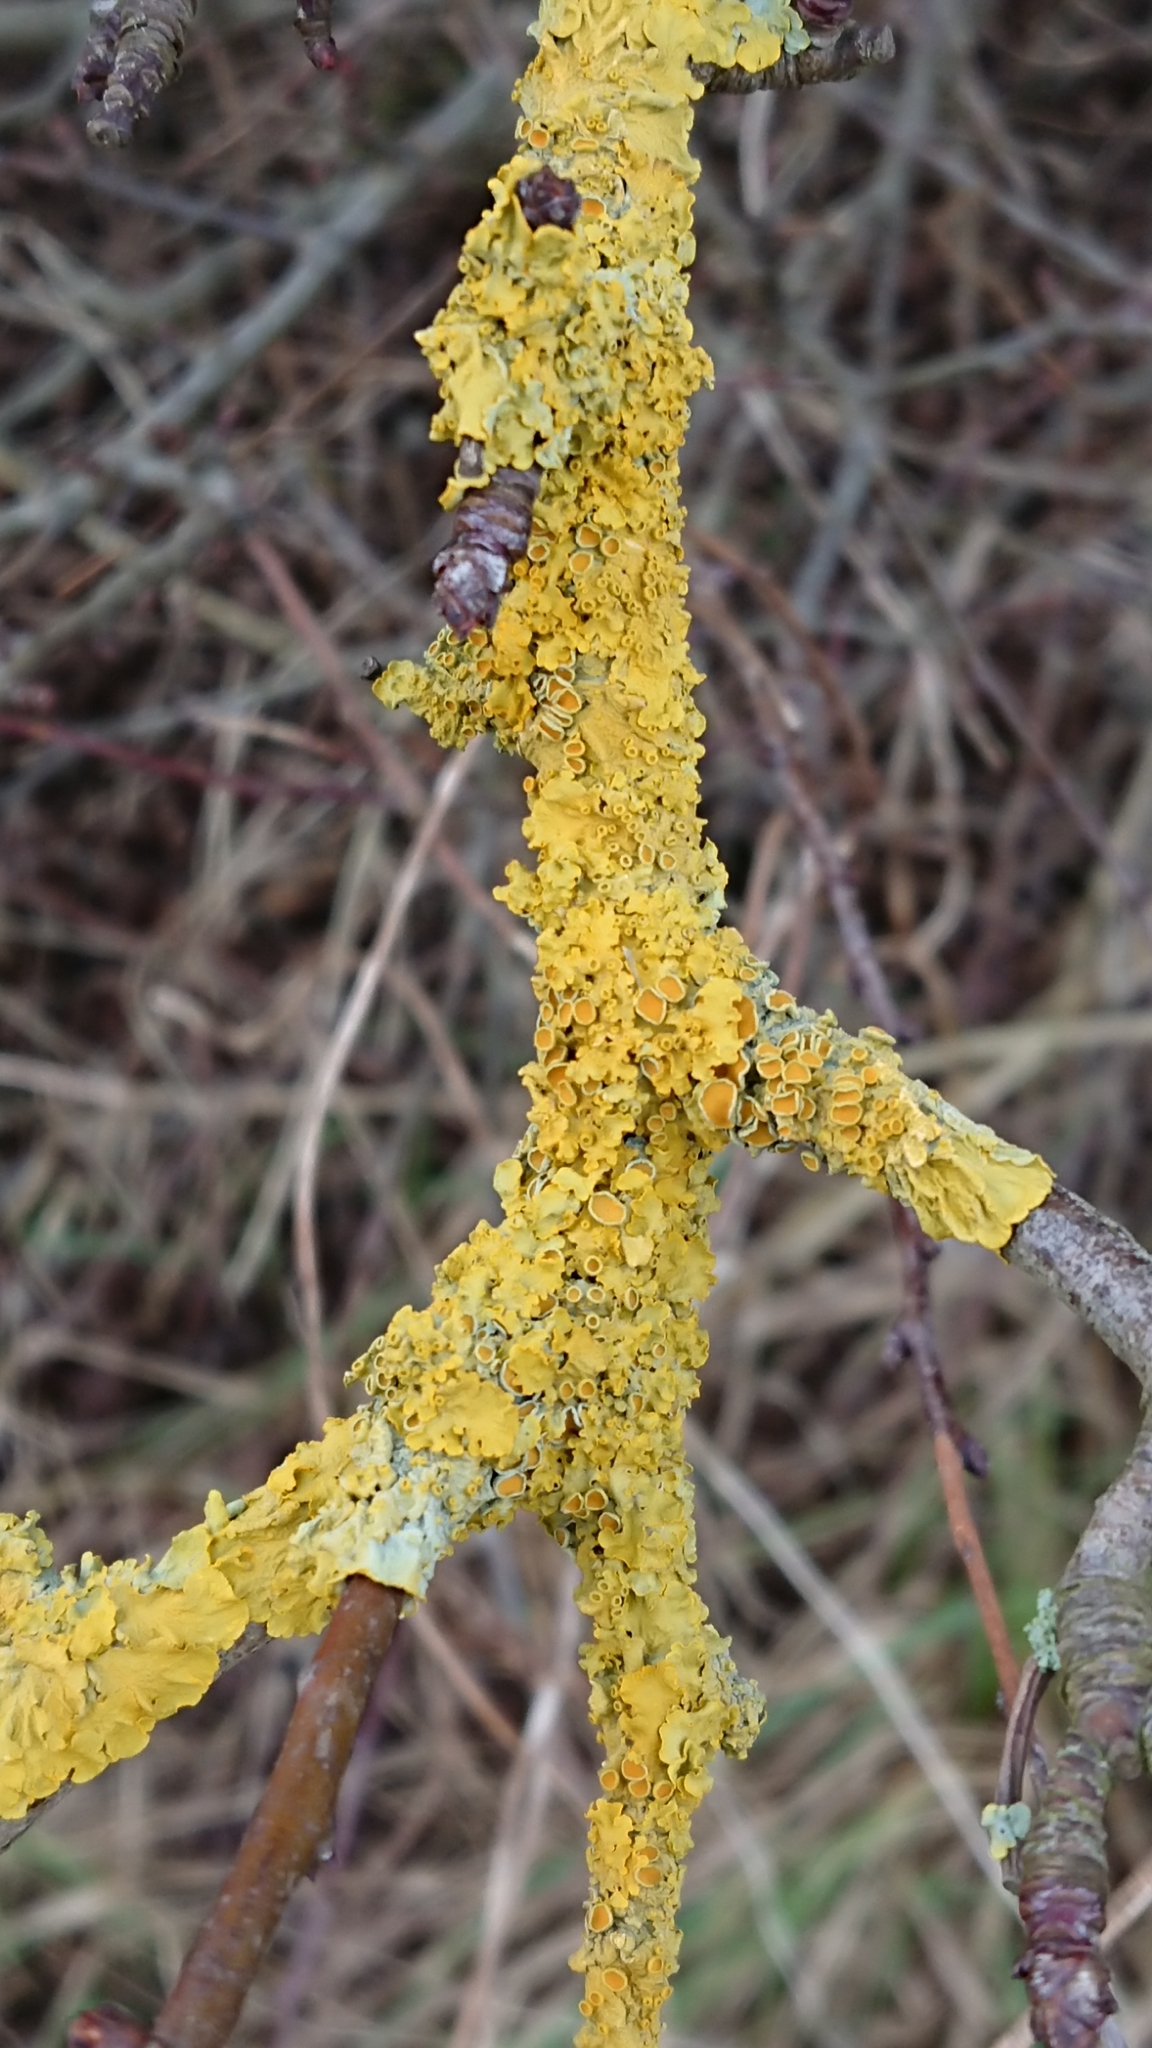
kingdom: Fungi
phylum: Ascomycota
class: Lecanoromycetes
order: Teloschistales
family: Teloschistaceae
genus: Xanthoria
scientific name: Xanthoria parietina
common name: Common orange lichen
